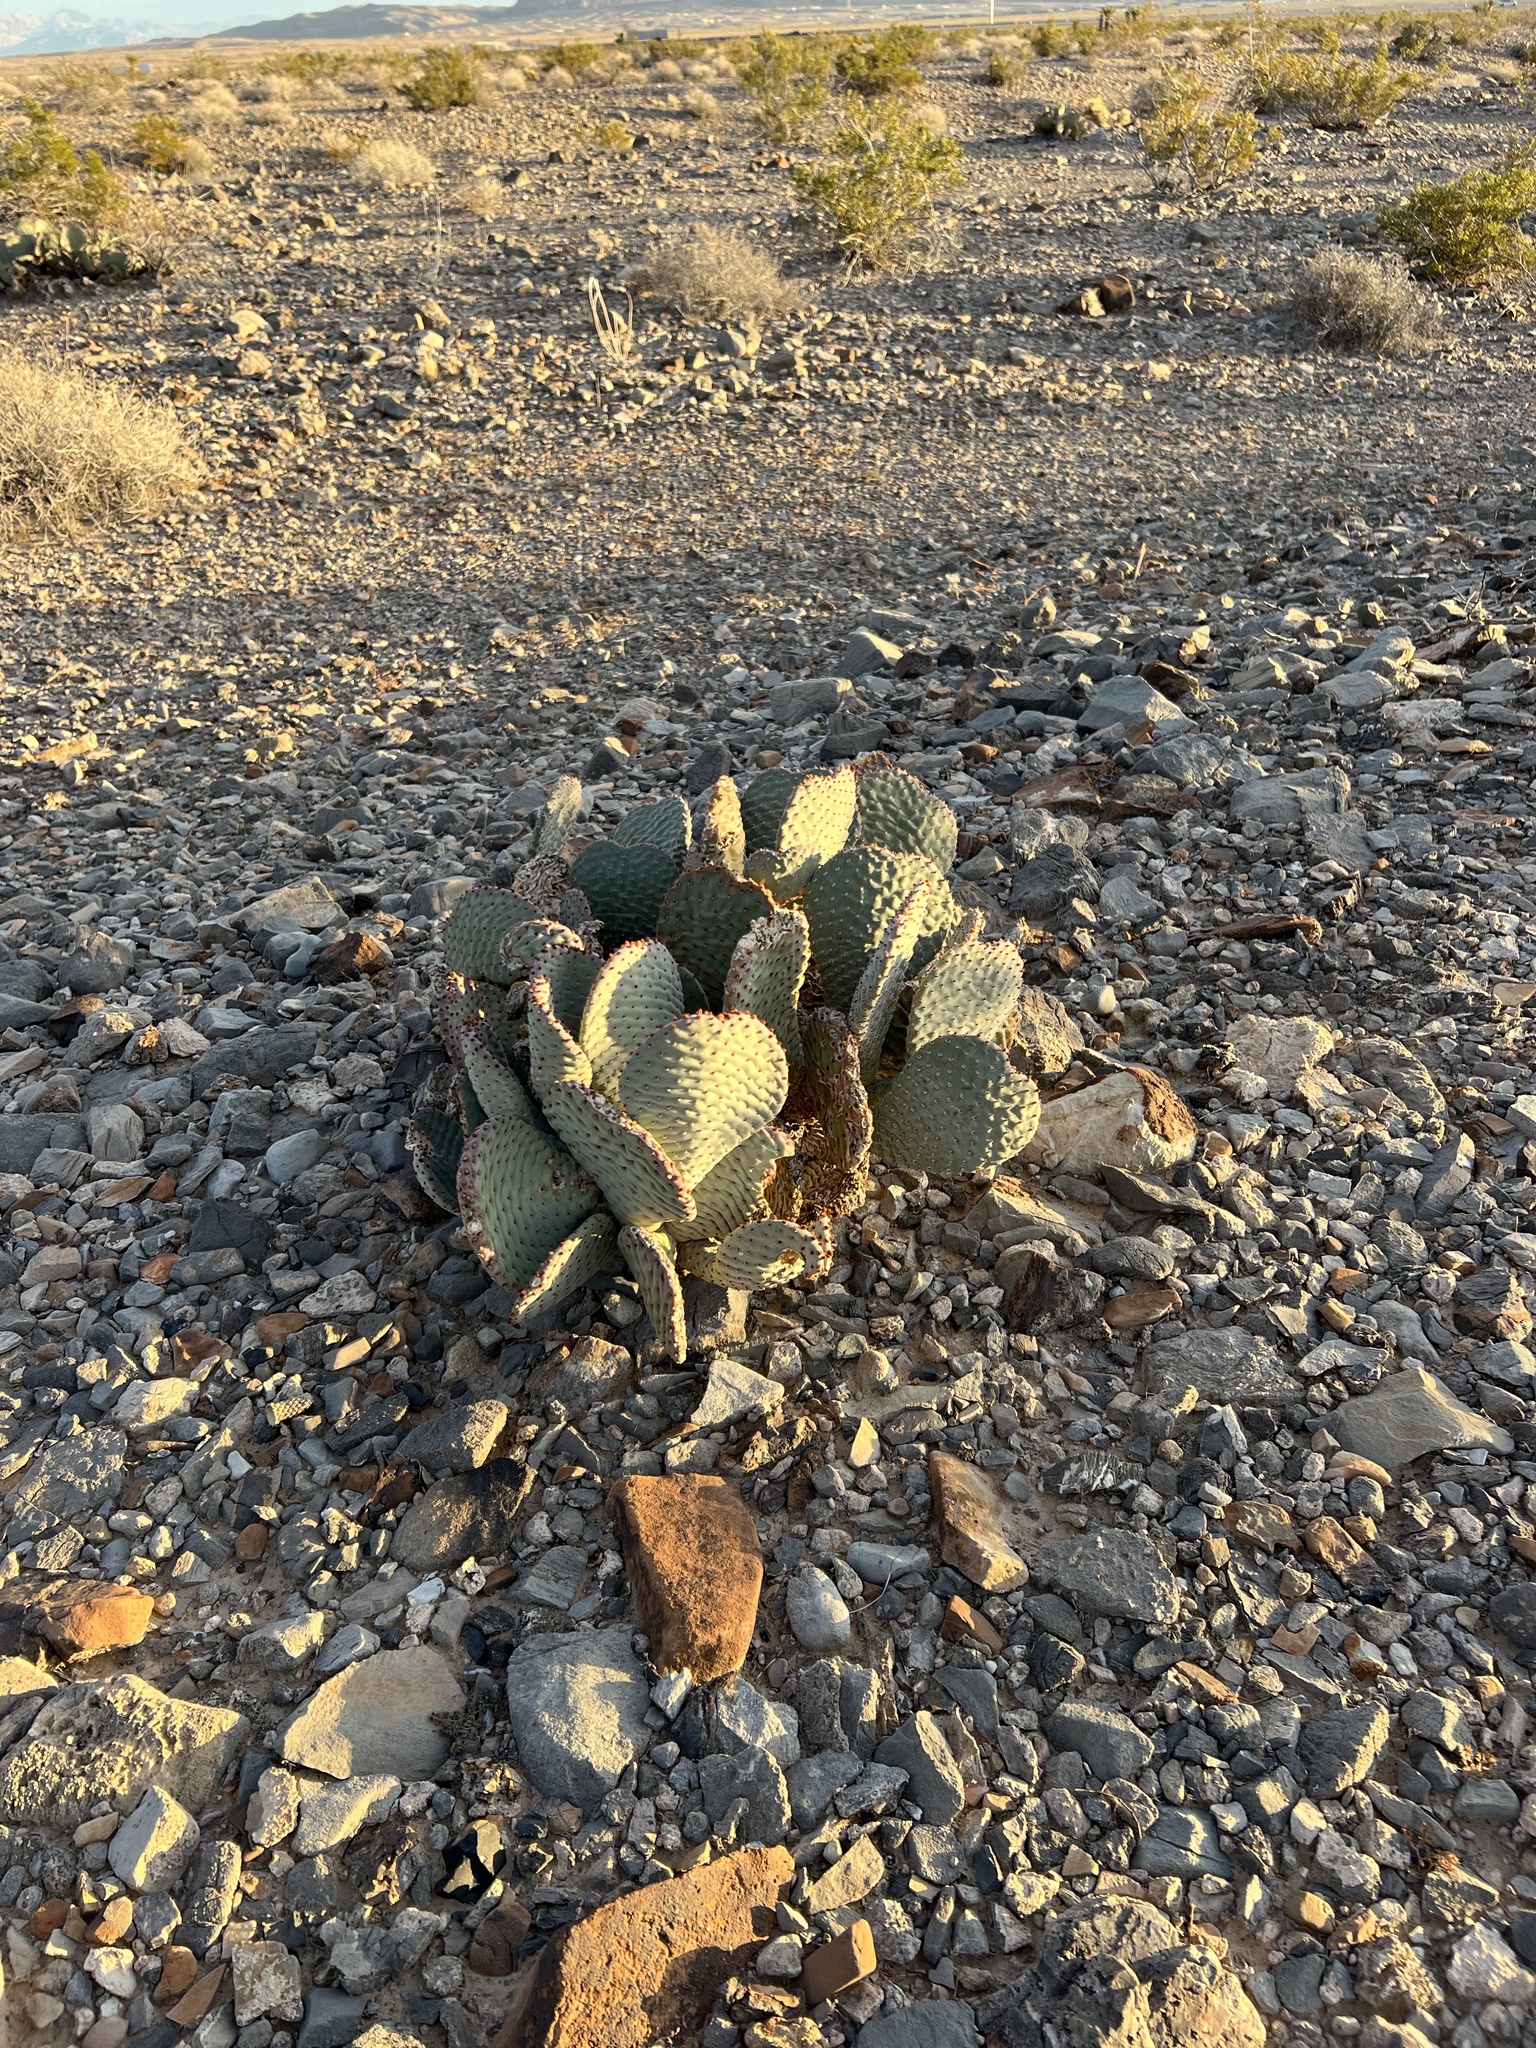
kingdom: Plantae
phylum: Tracheophyta
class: Magnoliopsida
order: Caryophyllales
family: Cactaceae
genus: Opuntia
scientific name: Opuntia basilaris
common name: Beavertail prickly-pear
